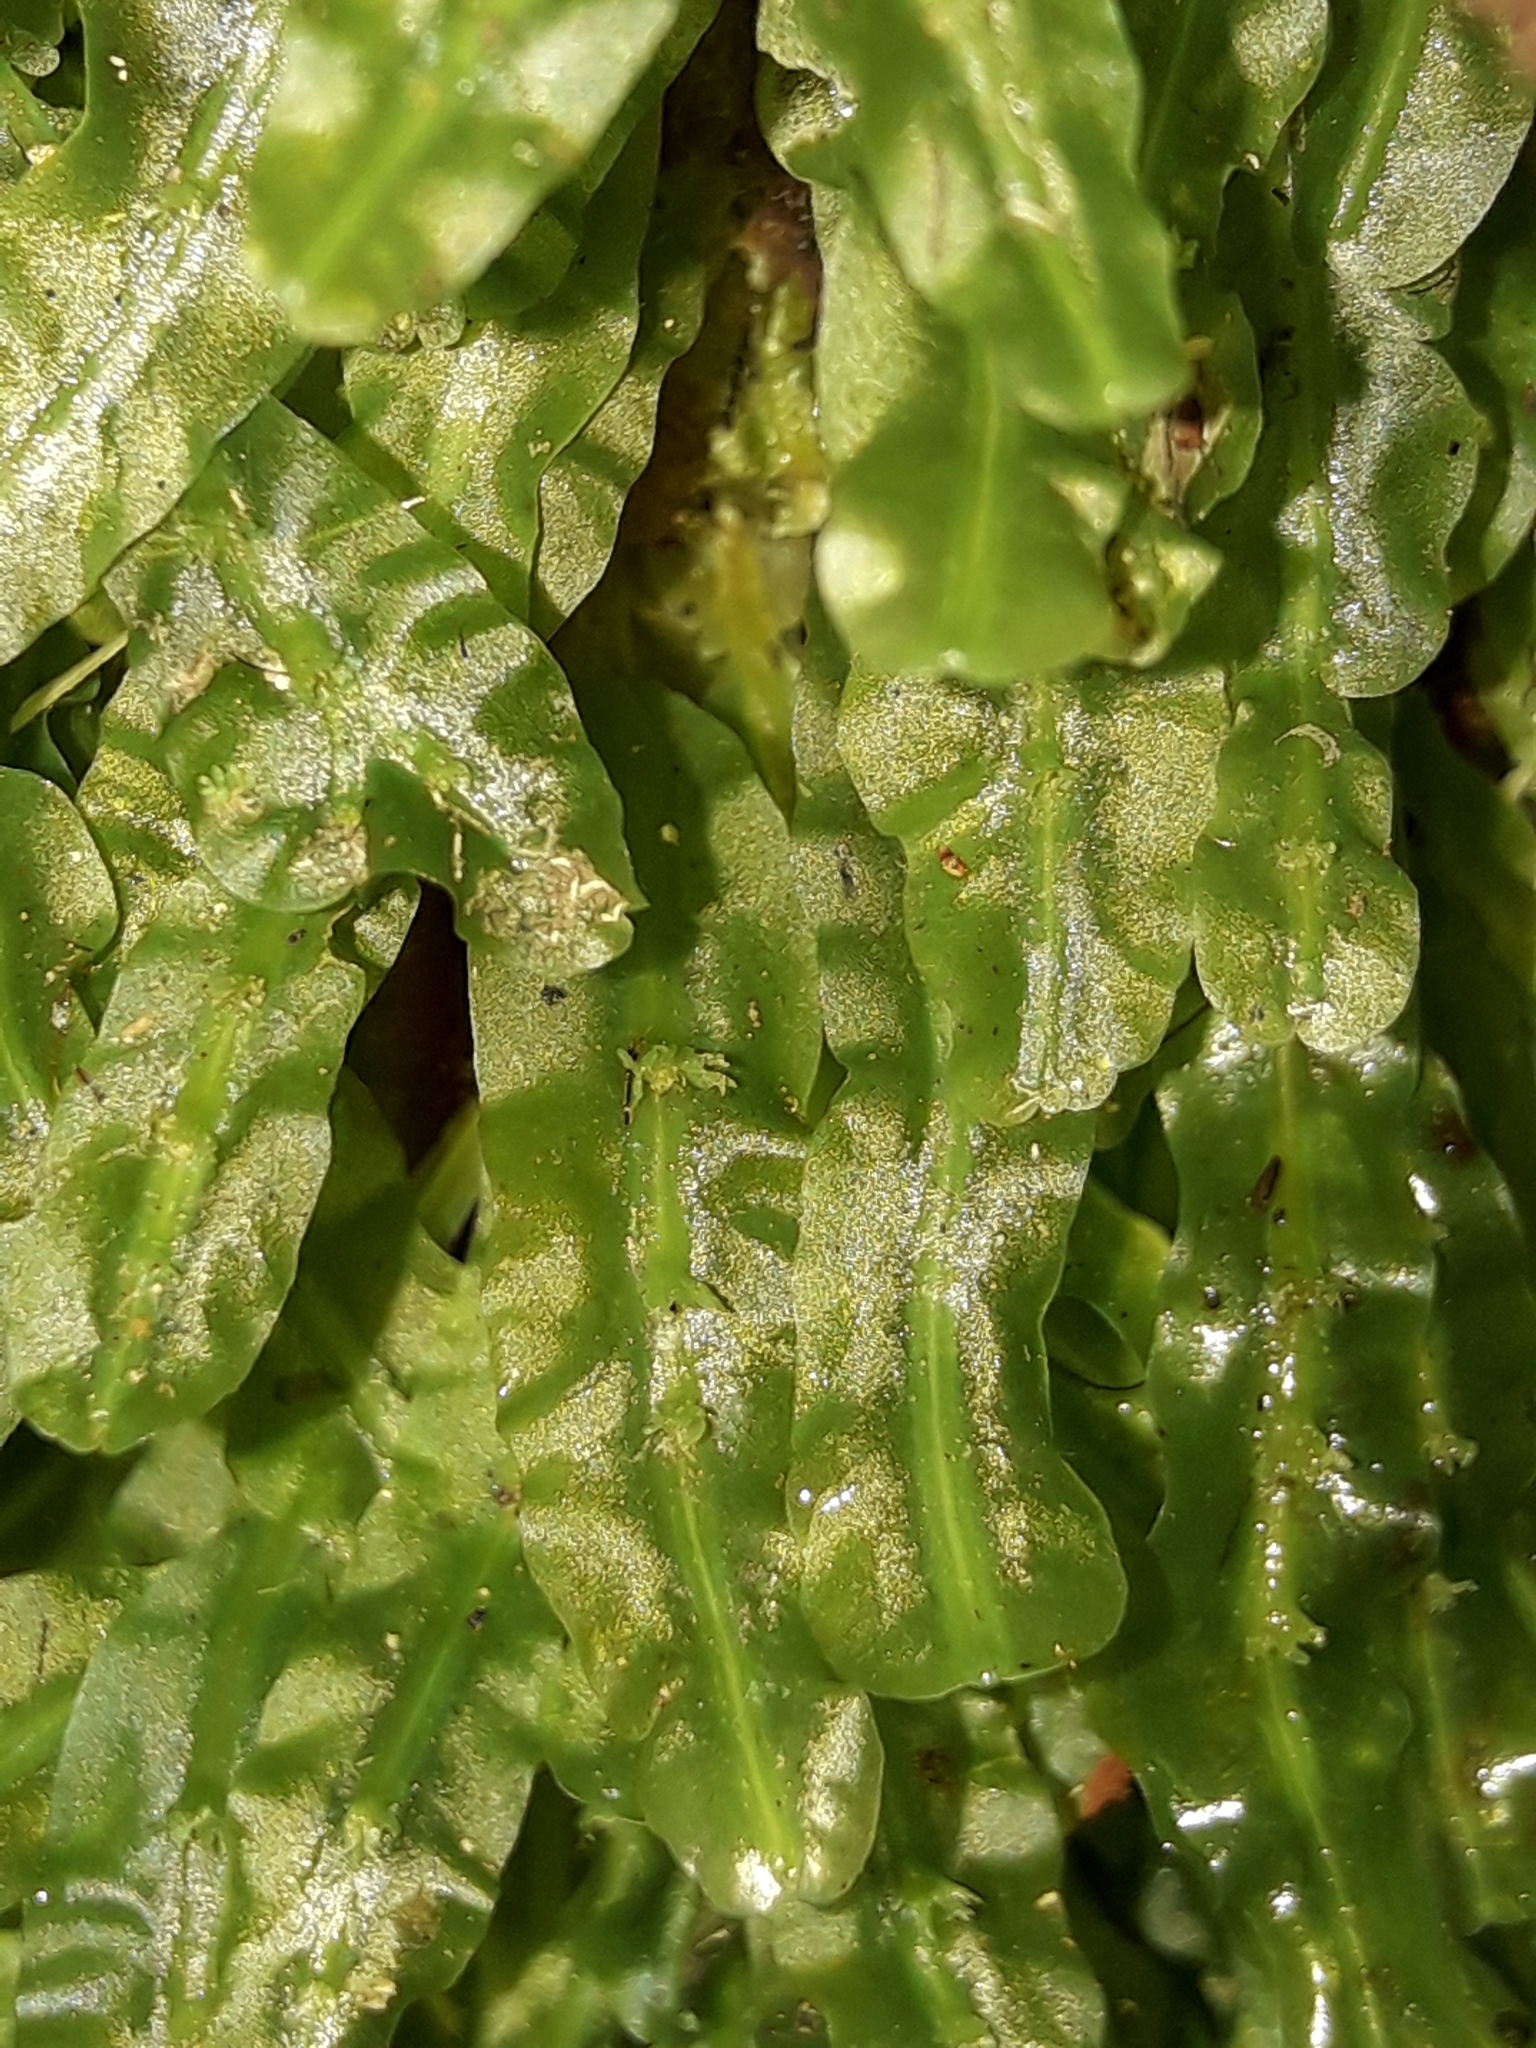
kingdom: Plantae
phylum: Marchantiophyta
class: Jungermanniopsida
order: Pallaviciniales
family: Pallaviciniaceae
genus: Symphyogyna
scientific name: Symphyogyna subsimplex
